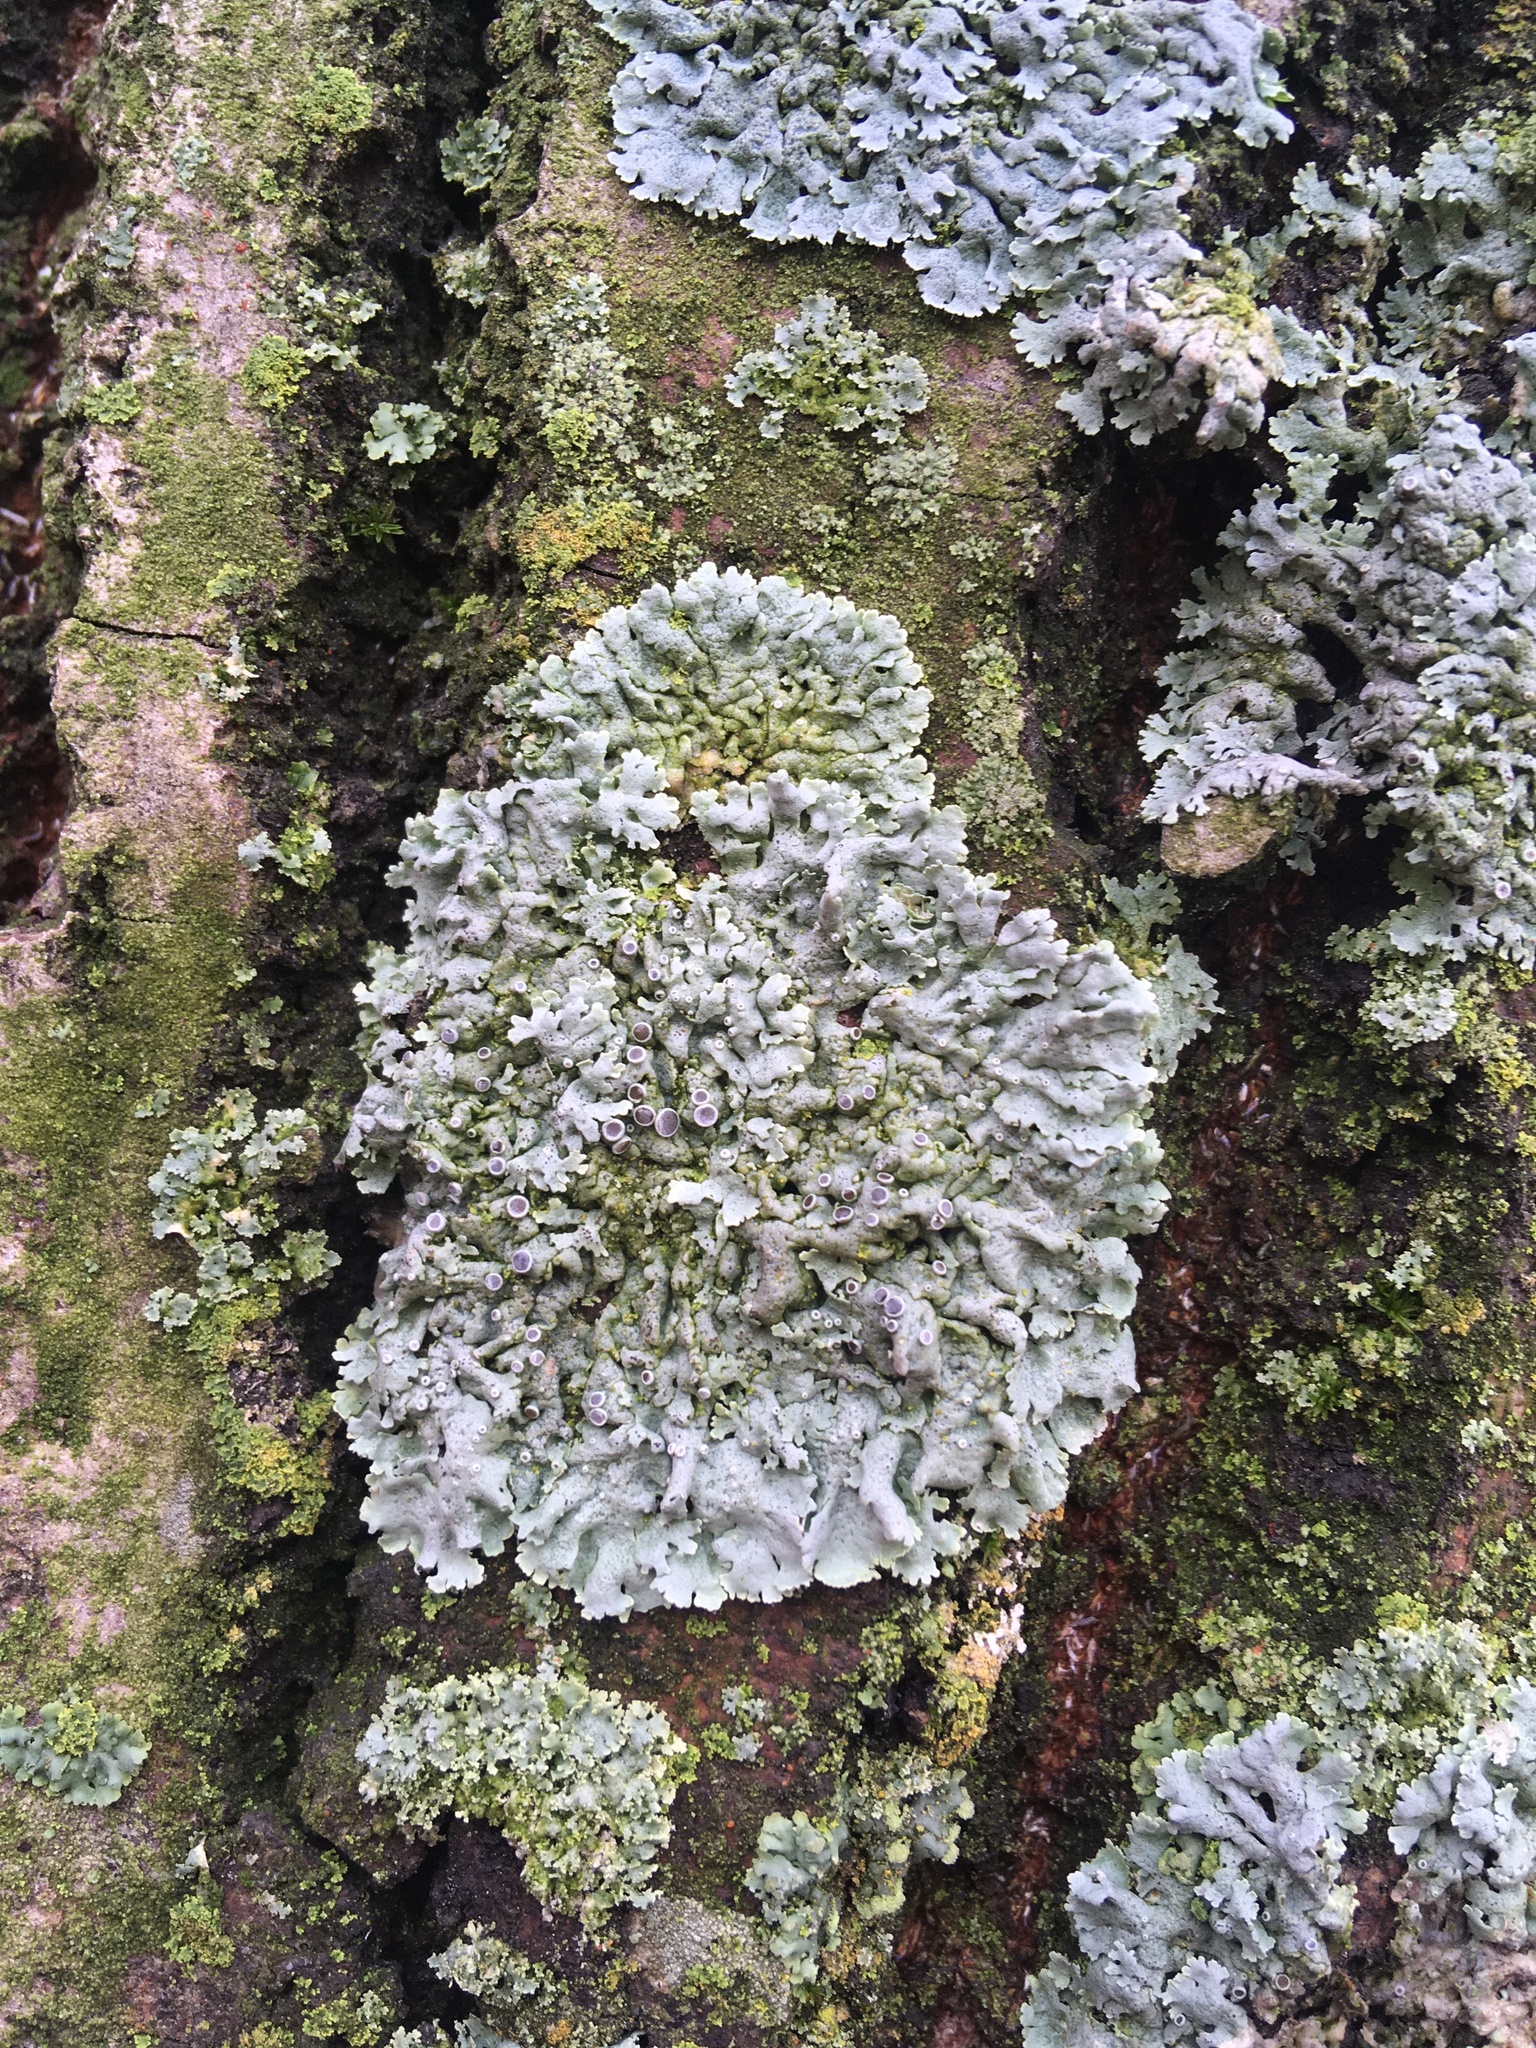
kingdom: Fungi
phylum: Ascomycota
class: Lecanoromycetes
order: Caliciales
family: Physciaceae
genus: Physcia
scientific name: Physcia stellaris
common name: Star rosette lichen
